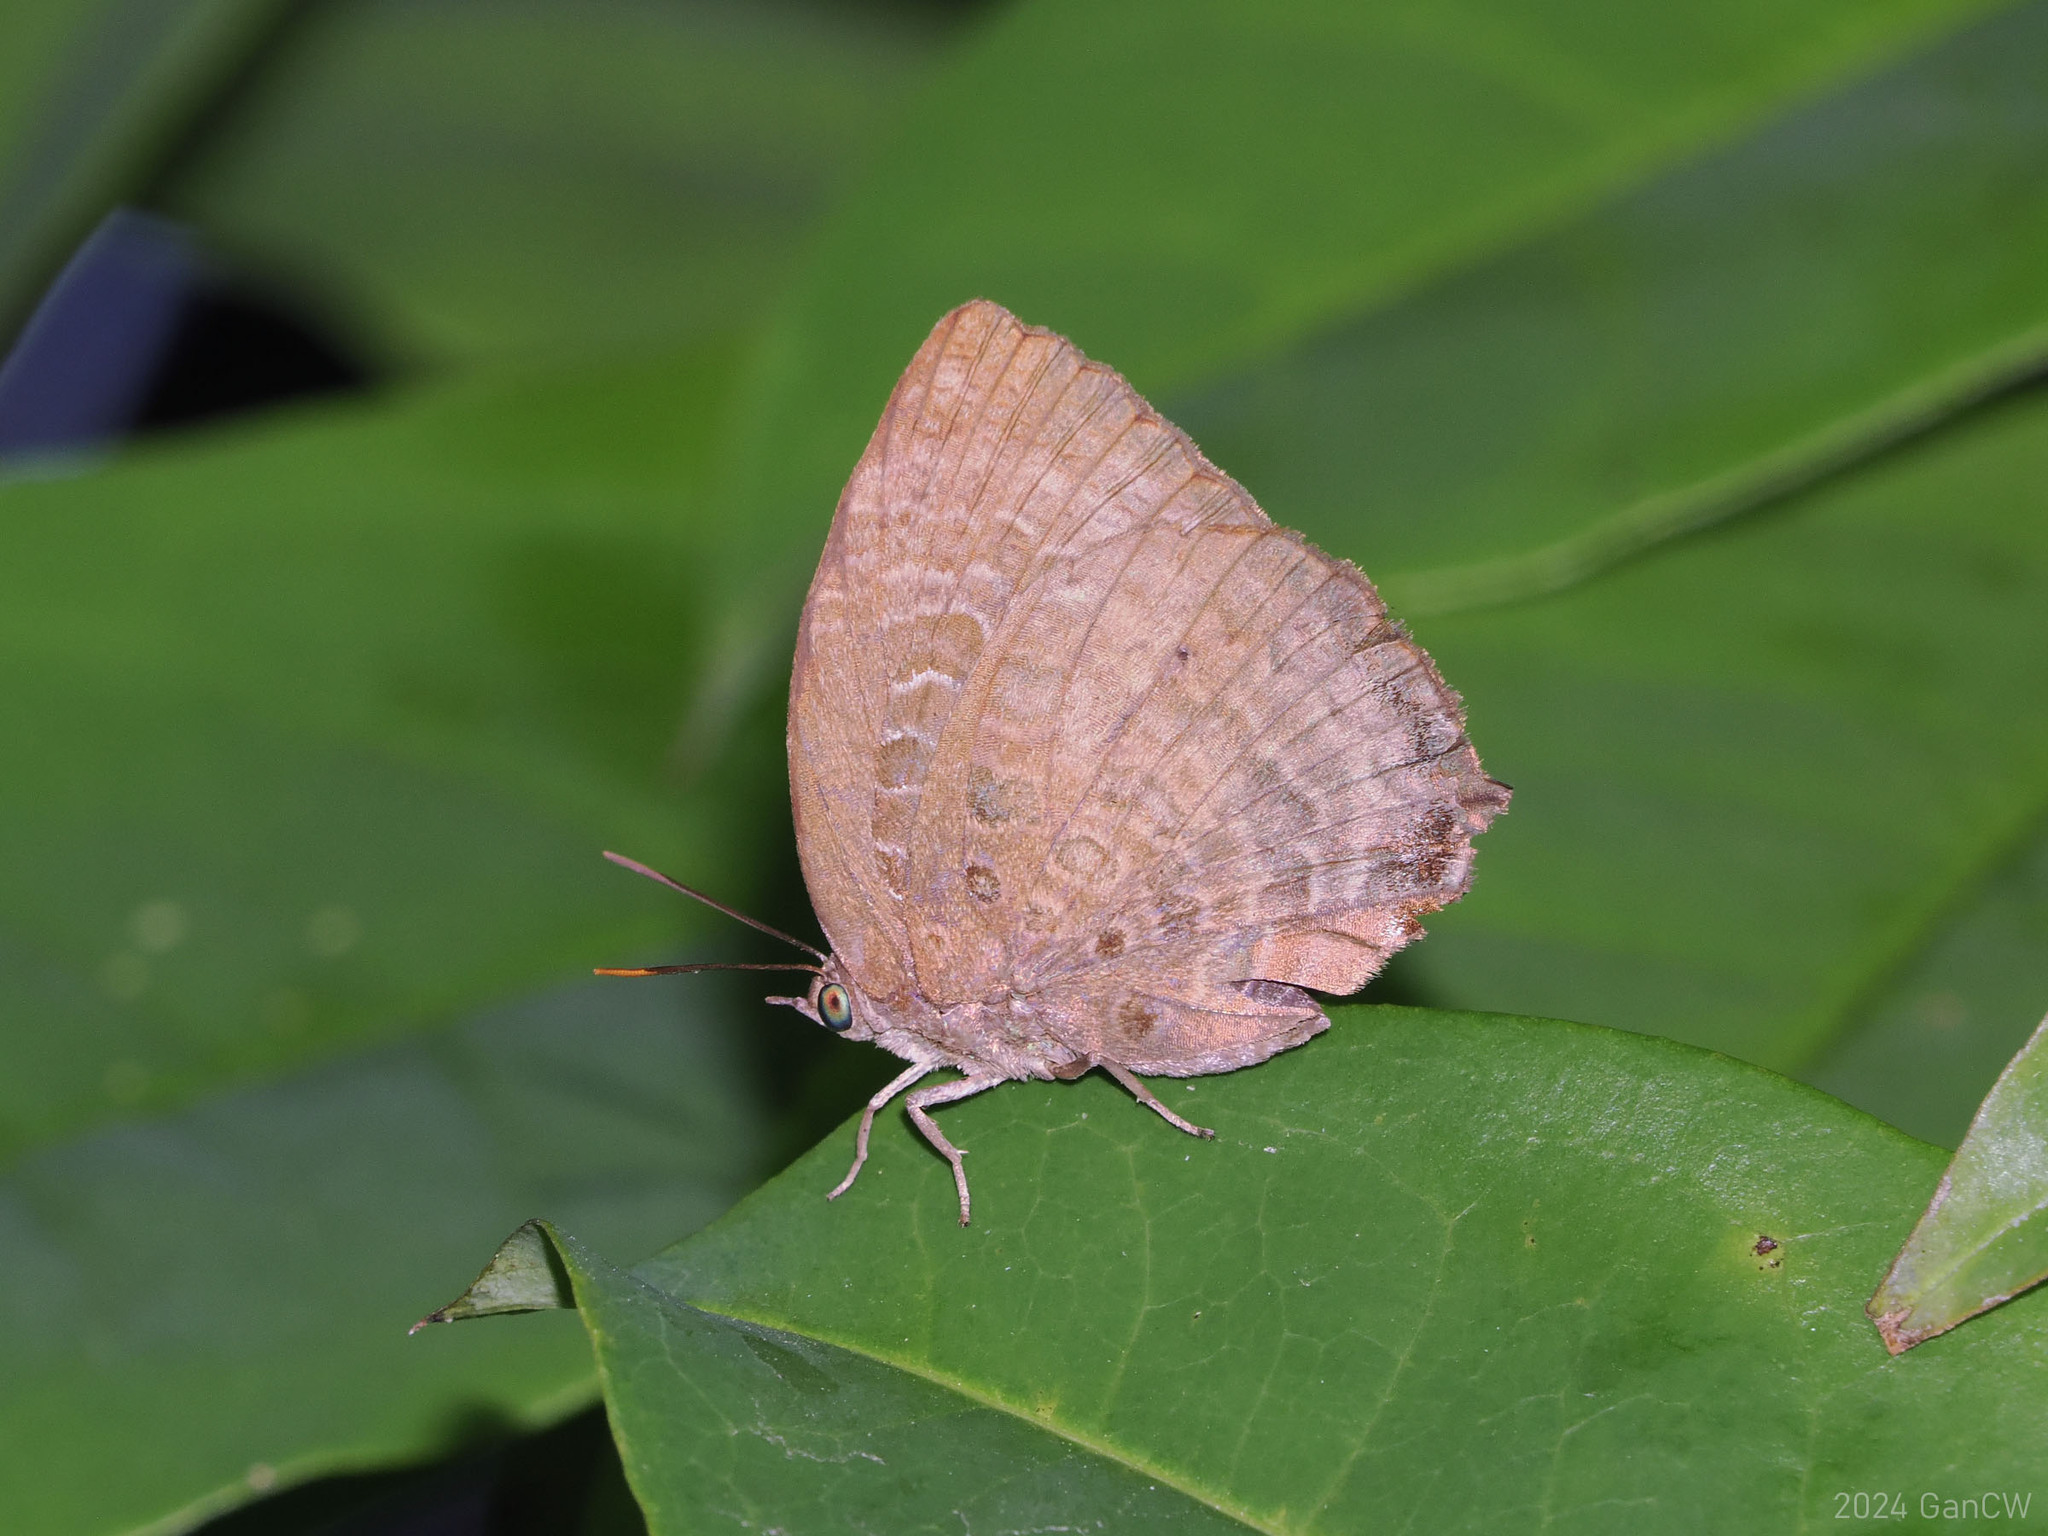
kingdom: Animalia
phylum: Arthropoda
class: Insecta
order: Lepidoptera
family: Lycaenidae
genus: Arhopala
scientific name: Arhopala centaurus
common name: Dull oak-blue
